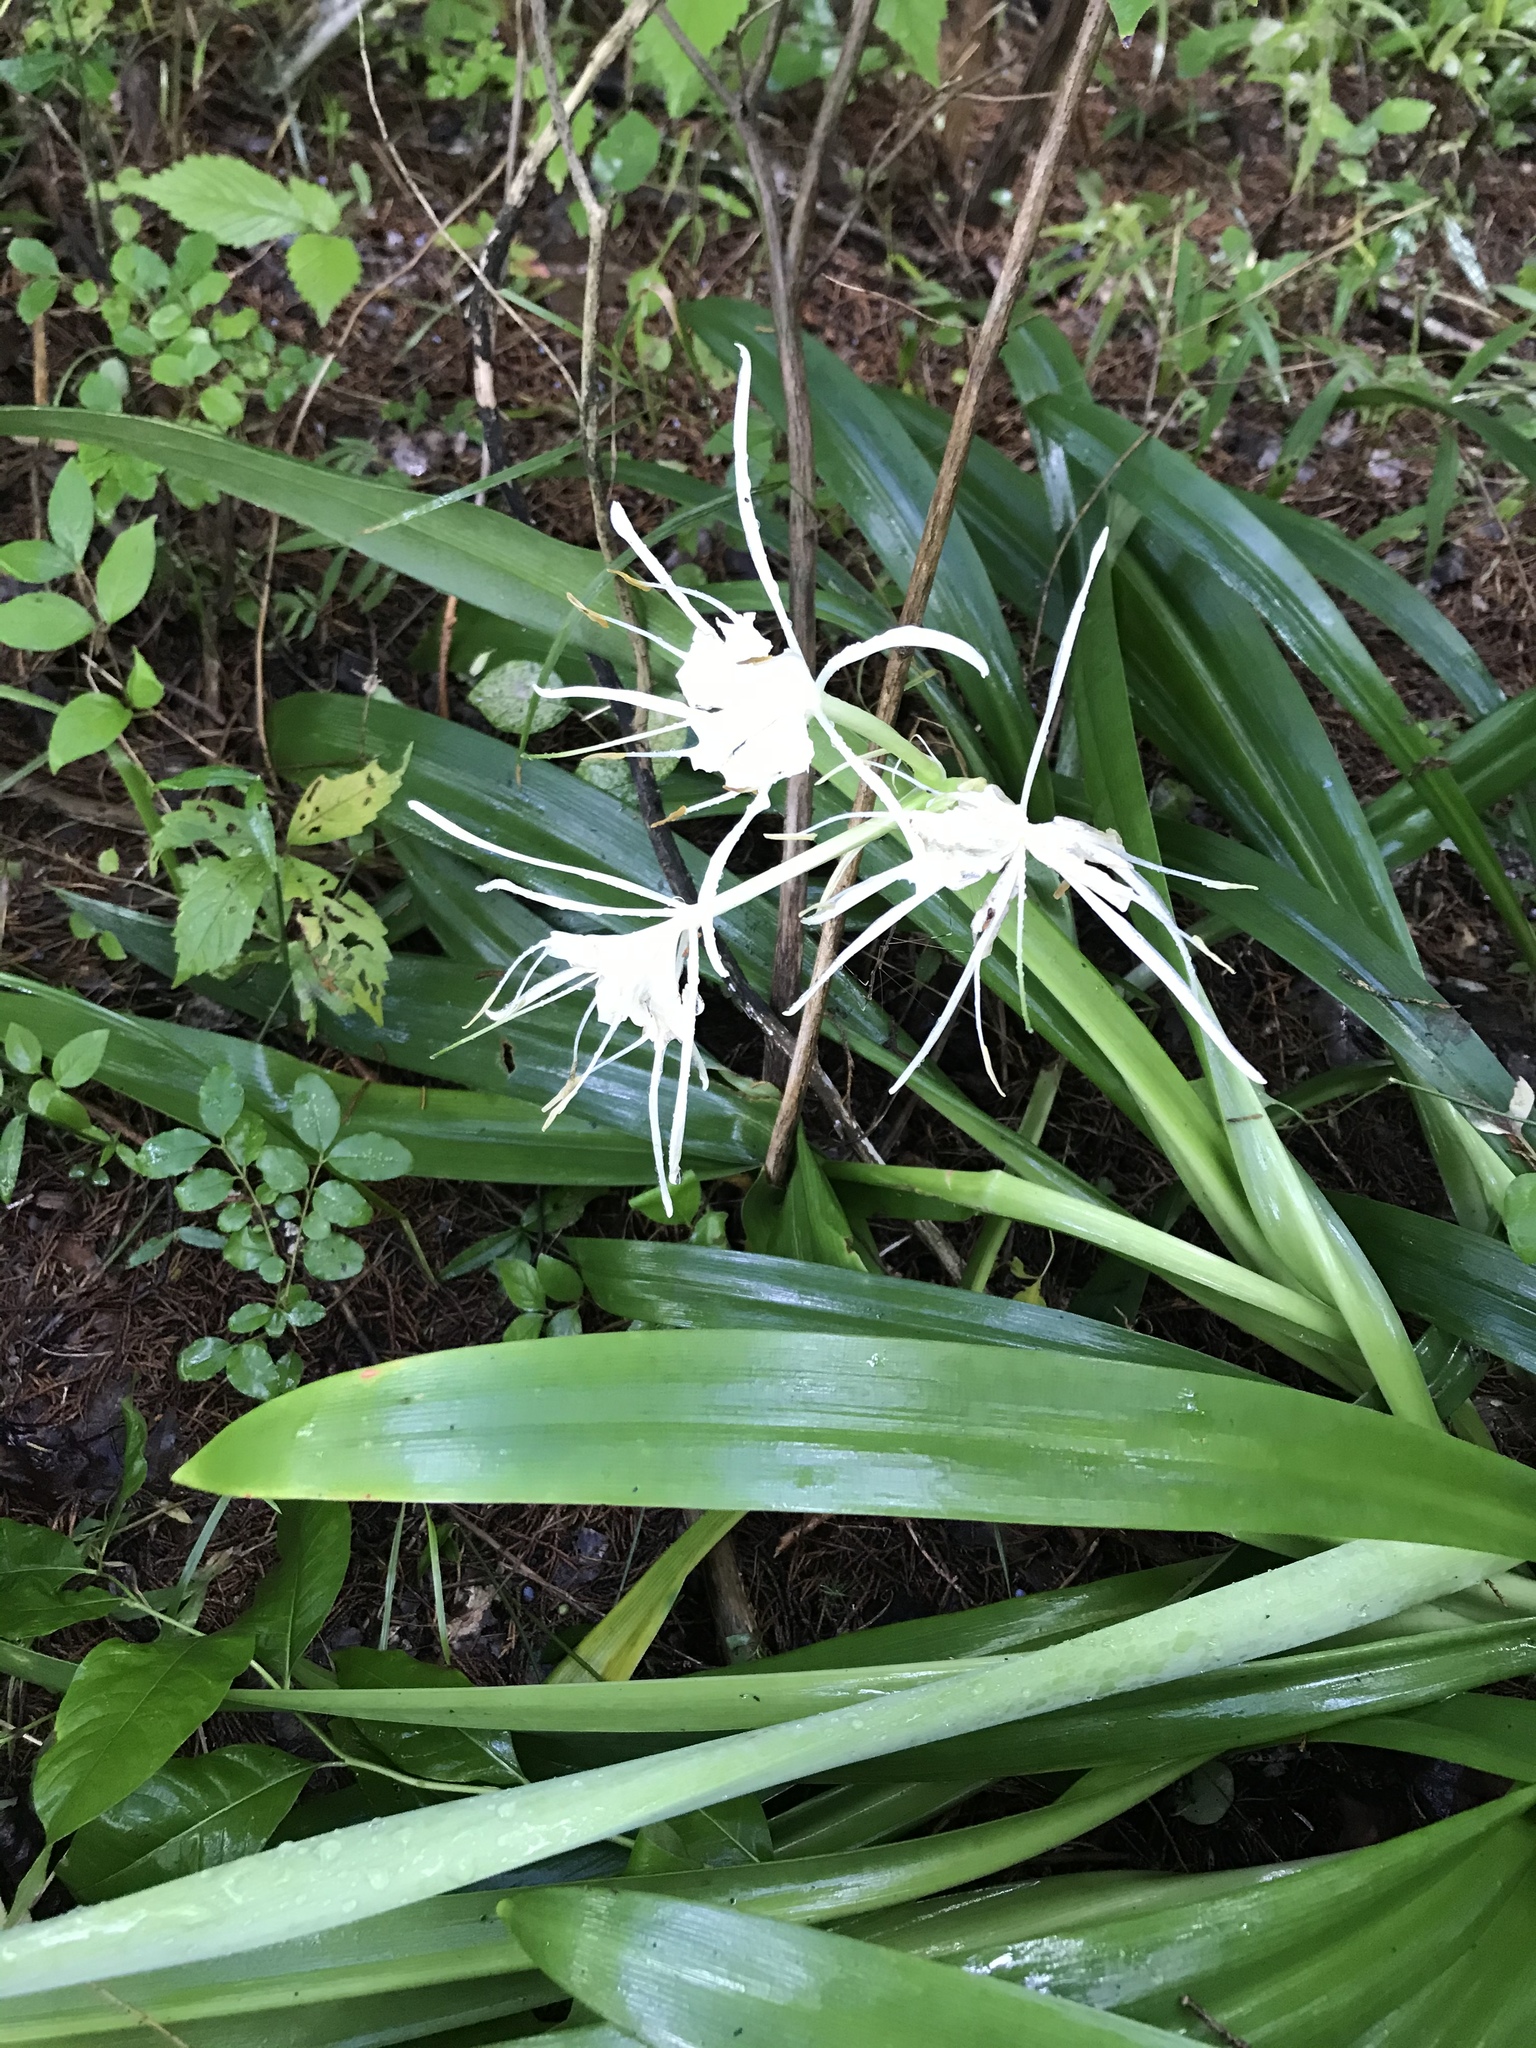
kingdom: Plantae
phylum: Tracheophyta
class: Liliopsida
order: Asparagales
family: Amaryllidaceae
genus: Hymenocallis
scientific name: Hymenocallis occidentalis
